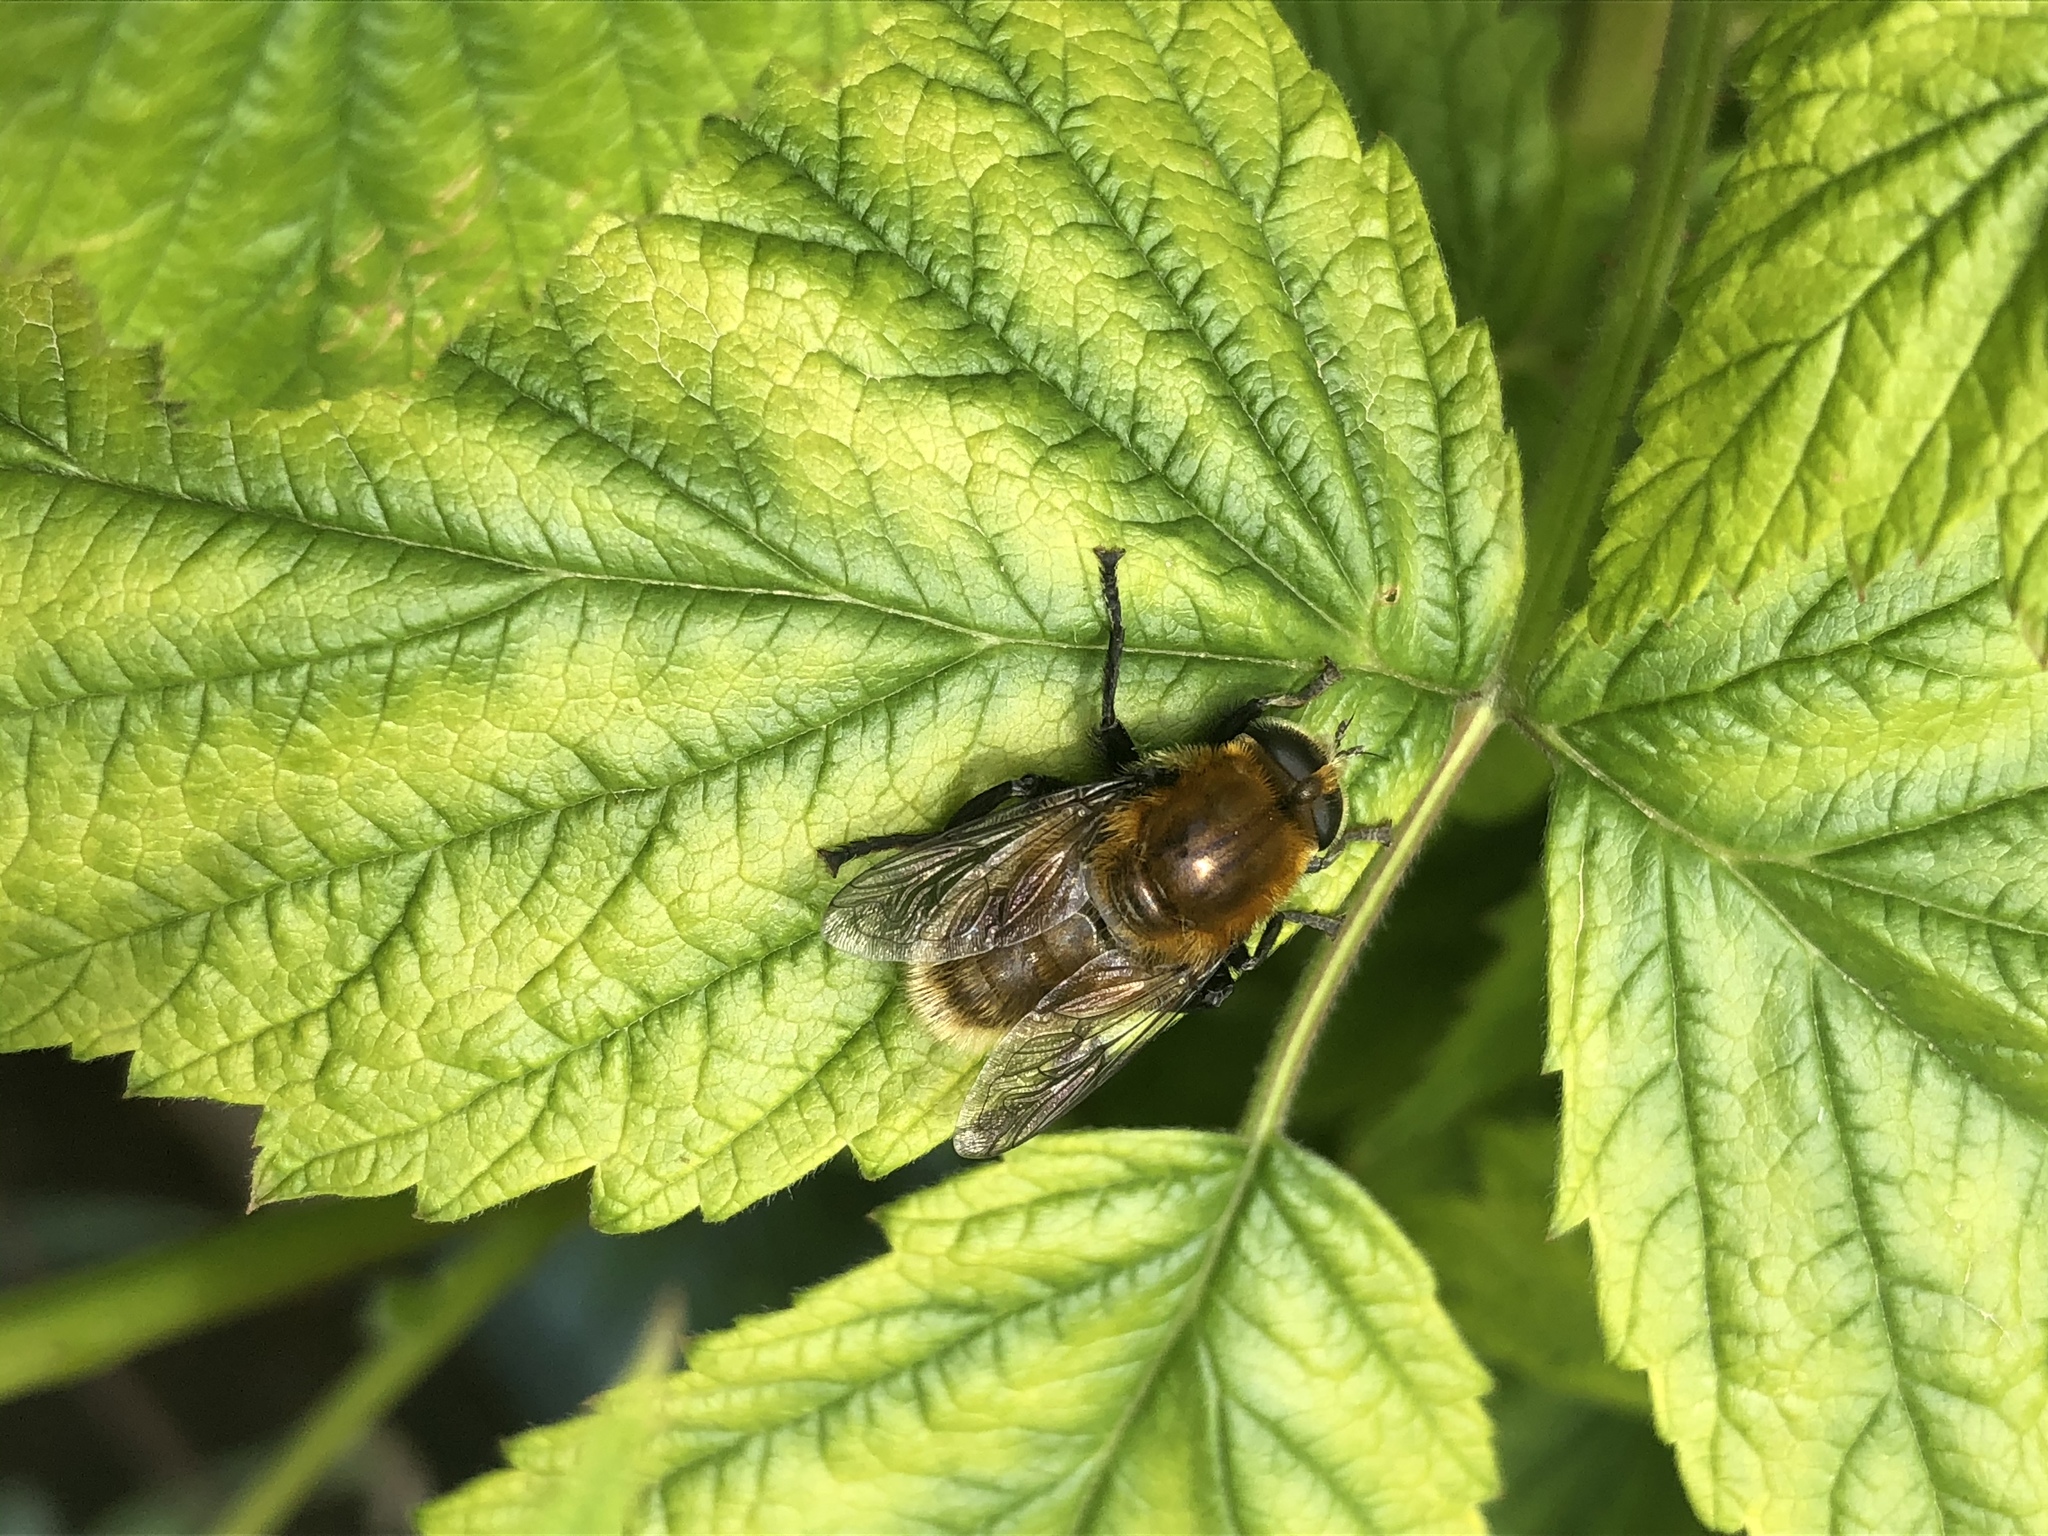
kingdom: Animalia
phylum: Arthropoda
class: Insecta
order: Diptera
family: Syrphidae
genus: Merodon
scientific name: Merodon equestris
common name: Greater bulb-fly
